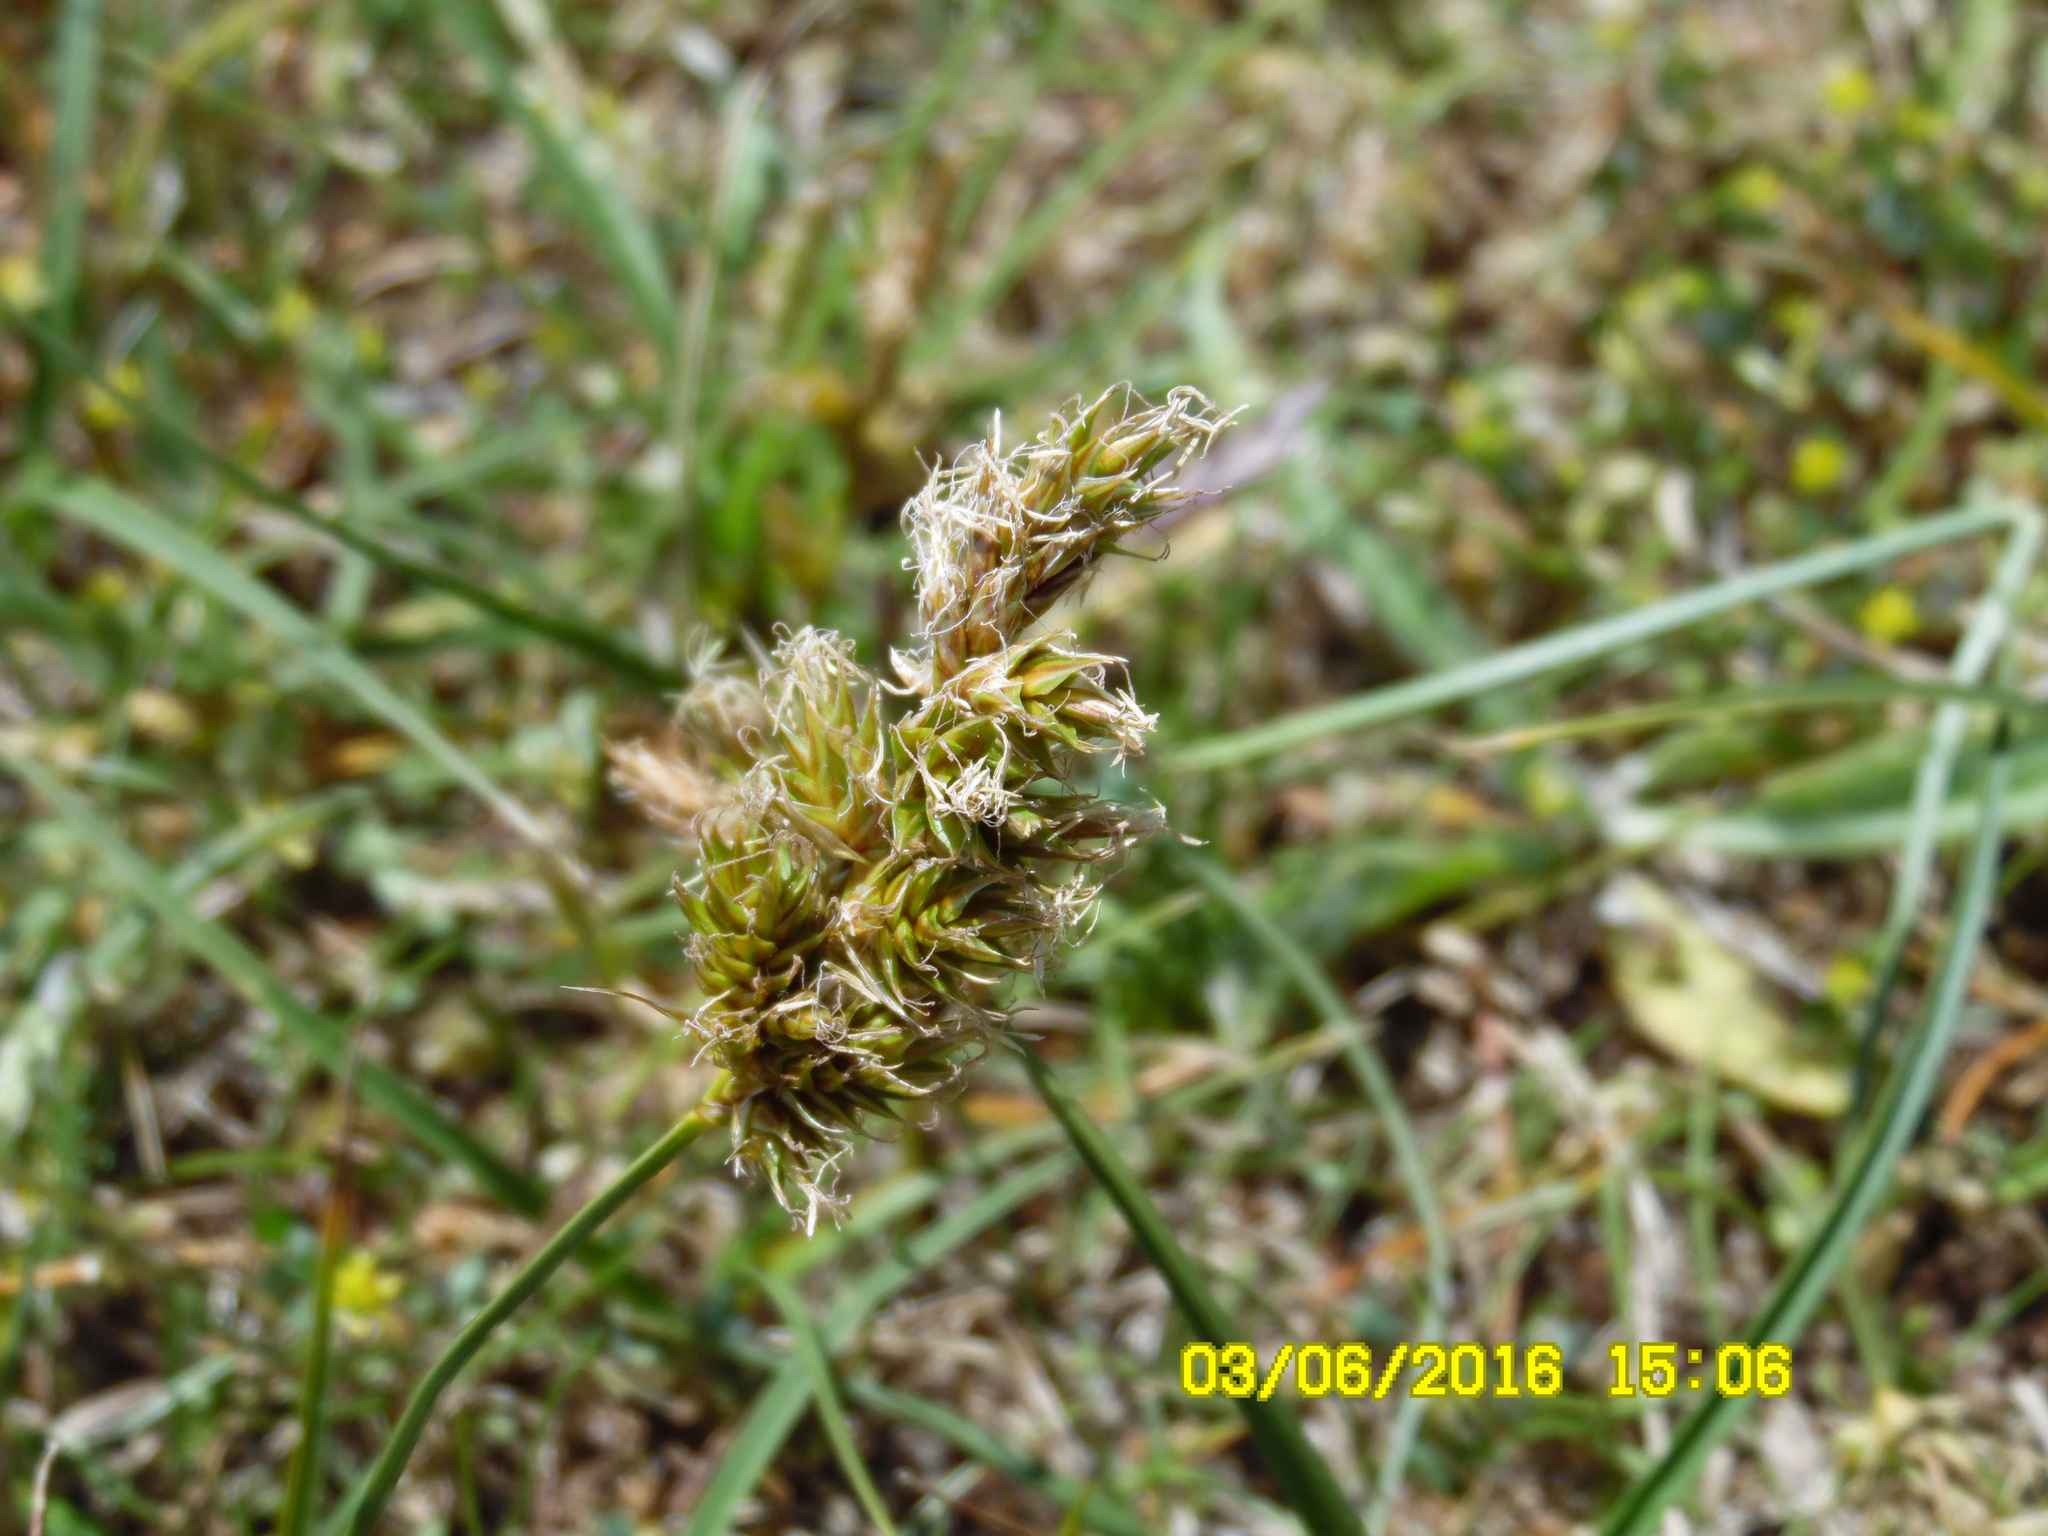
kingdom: Plantae
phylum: Tracheophyta
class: Liliopsida
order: Poales
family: Cyperaceae
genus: Carex
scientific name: Carex arenaria
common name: Sand sedge
